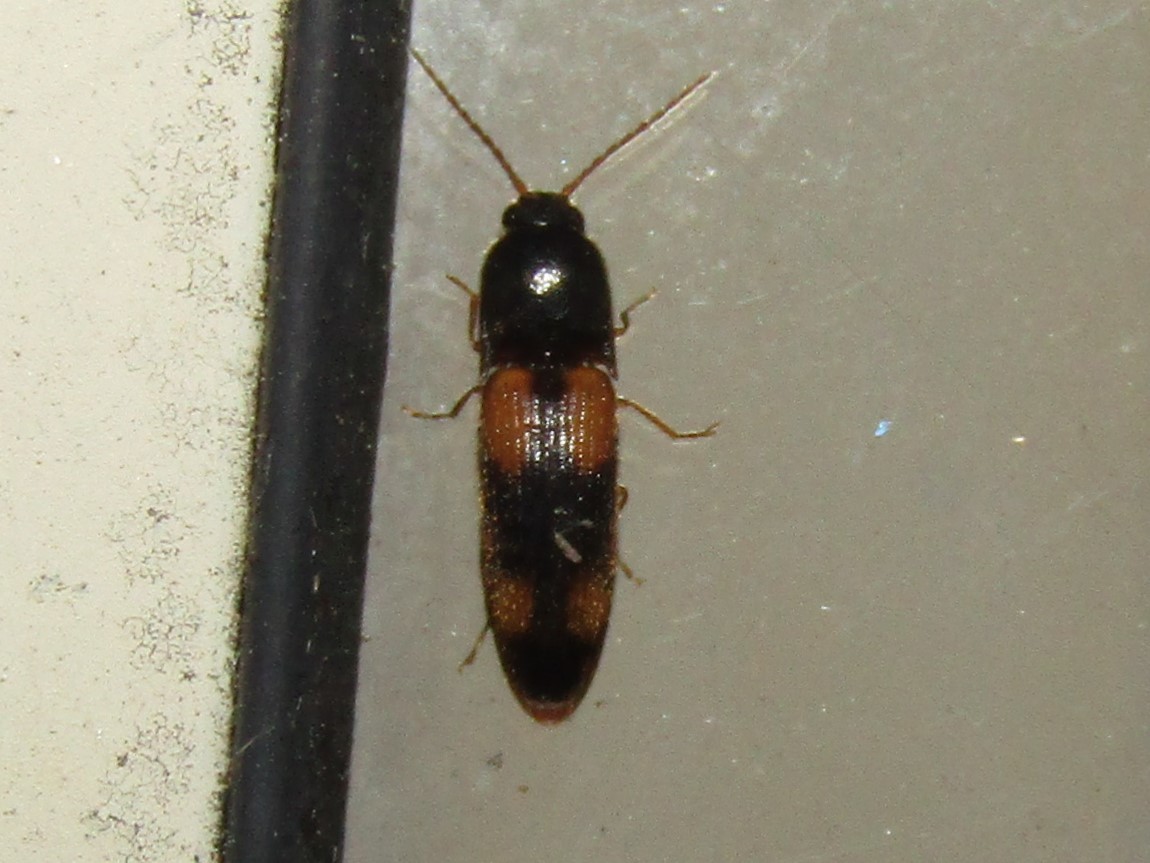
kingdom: Animalia
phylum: Arthropoda
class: Insecta
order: Coleoptera
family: Elateridae
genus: Anchastus
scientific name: Anchastus binus
